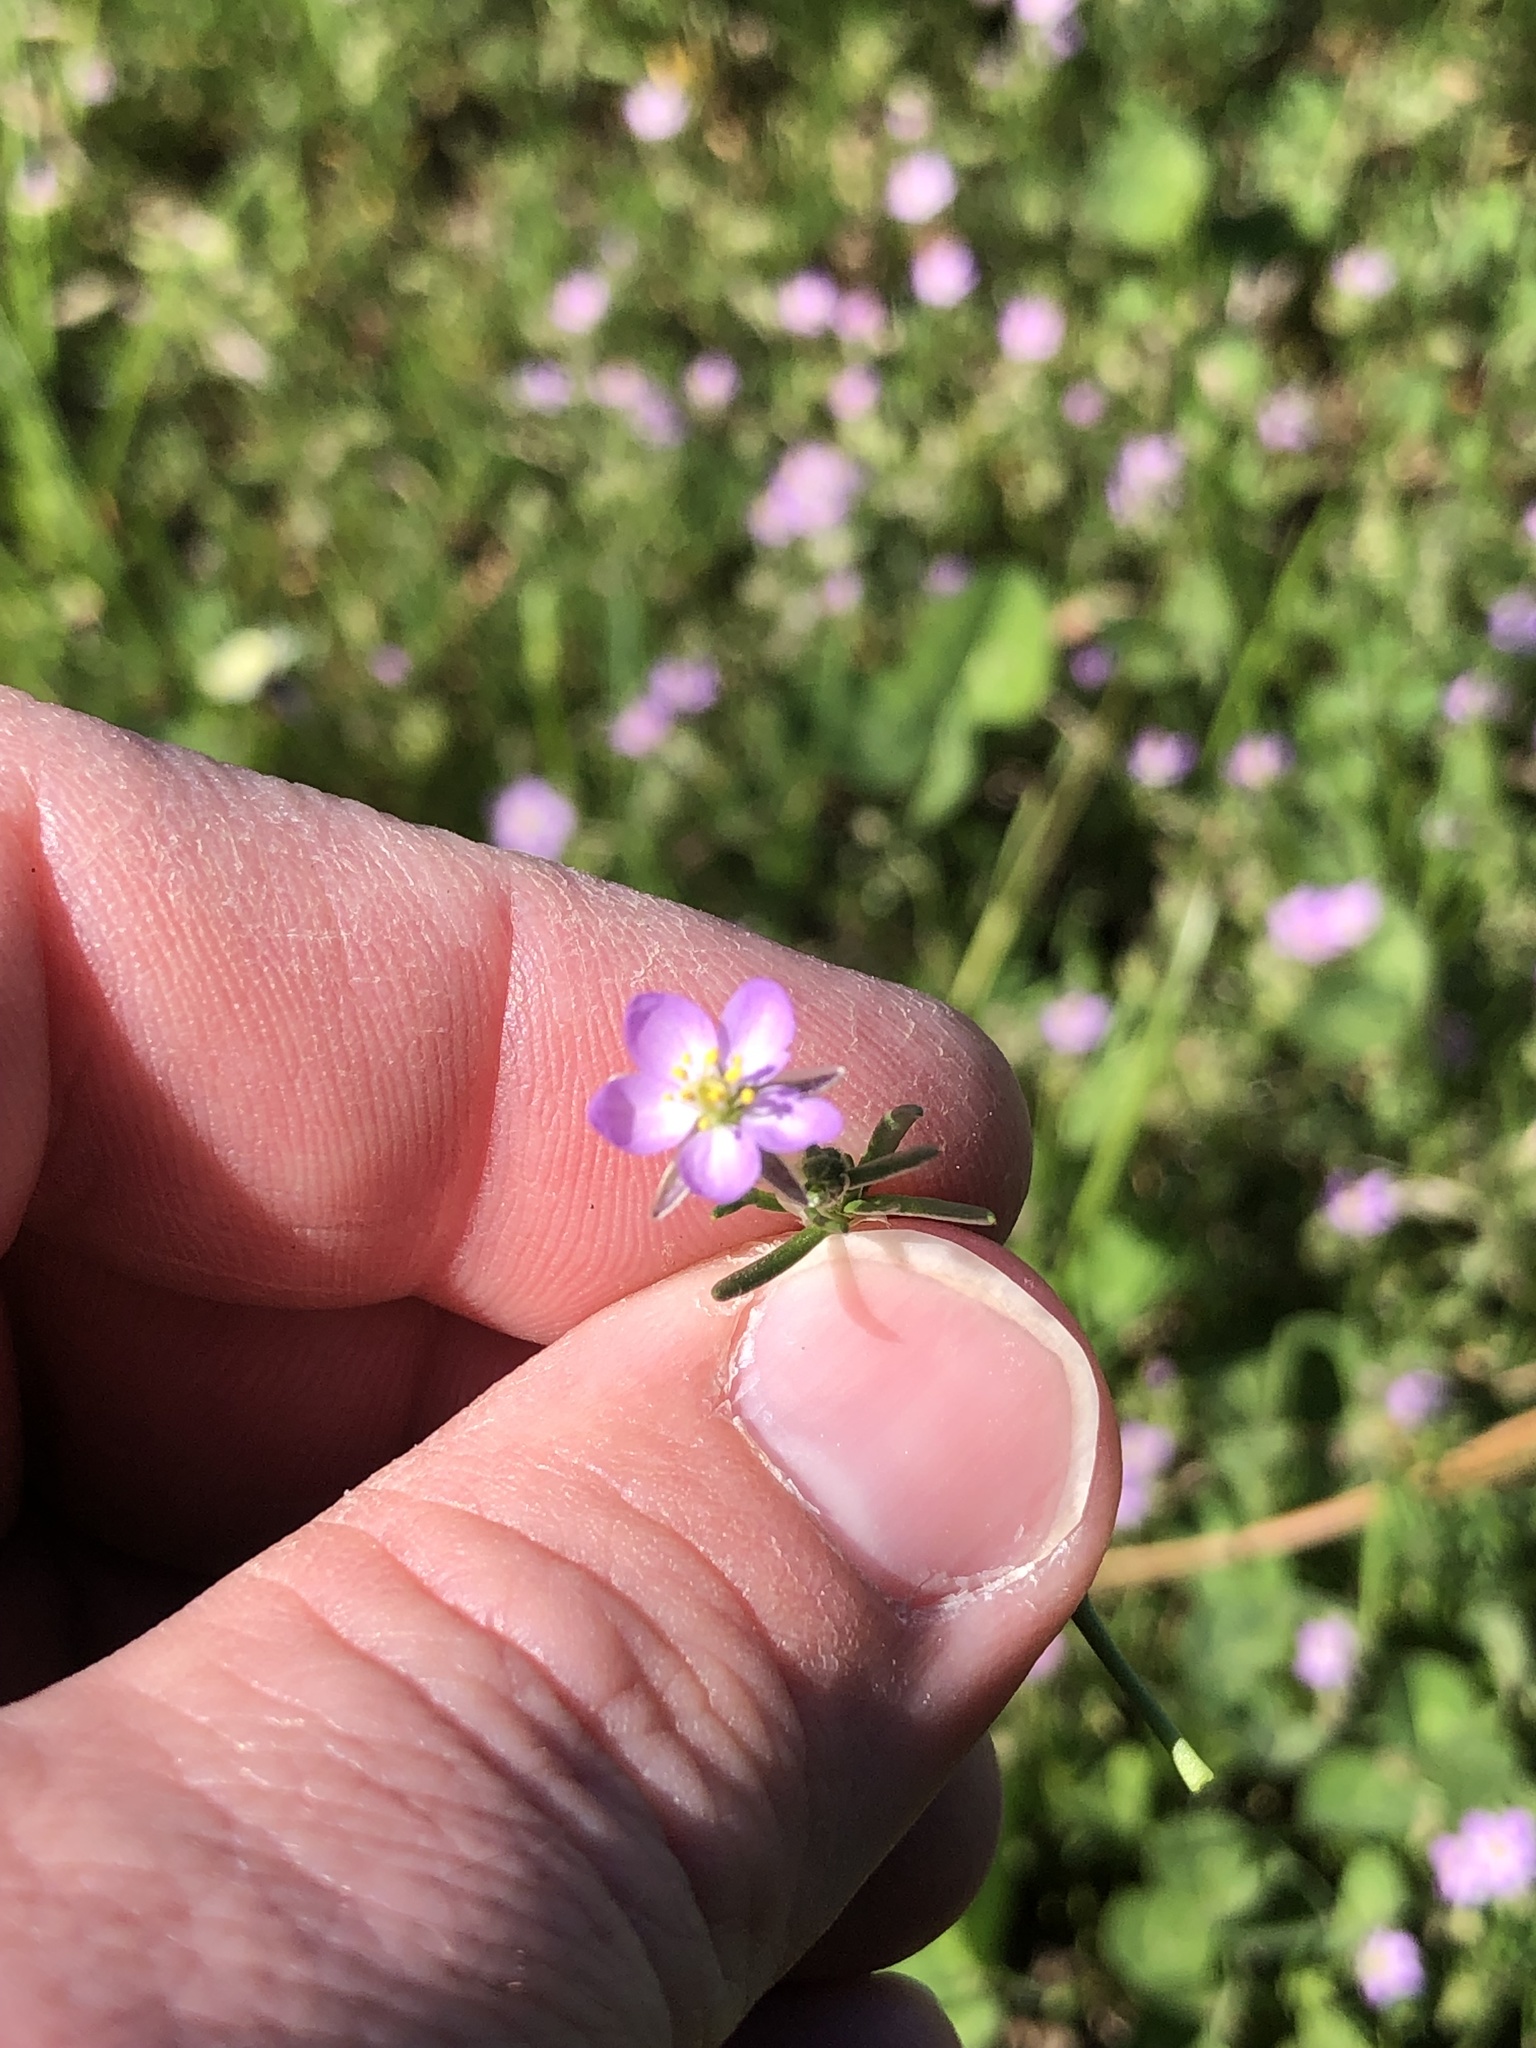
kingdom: Plantae
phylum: Tracheophyta
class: Magnoliopsida
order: Caryophyllales
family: Caryophyllaceae
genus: Spergularia
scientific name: Spergularia rubra
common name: Red sand-spurrey
